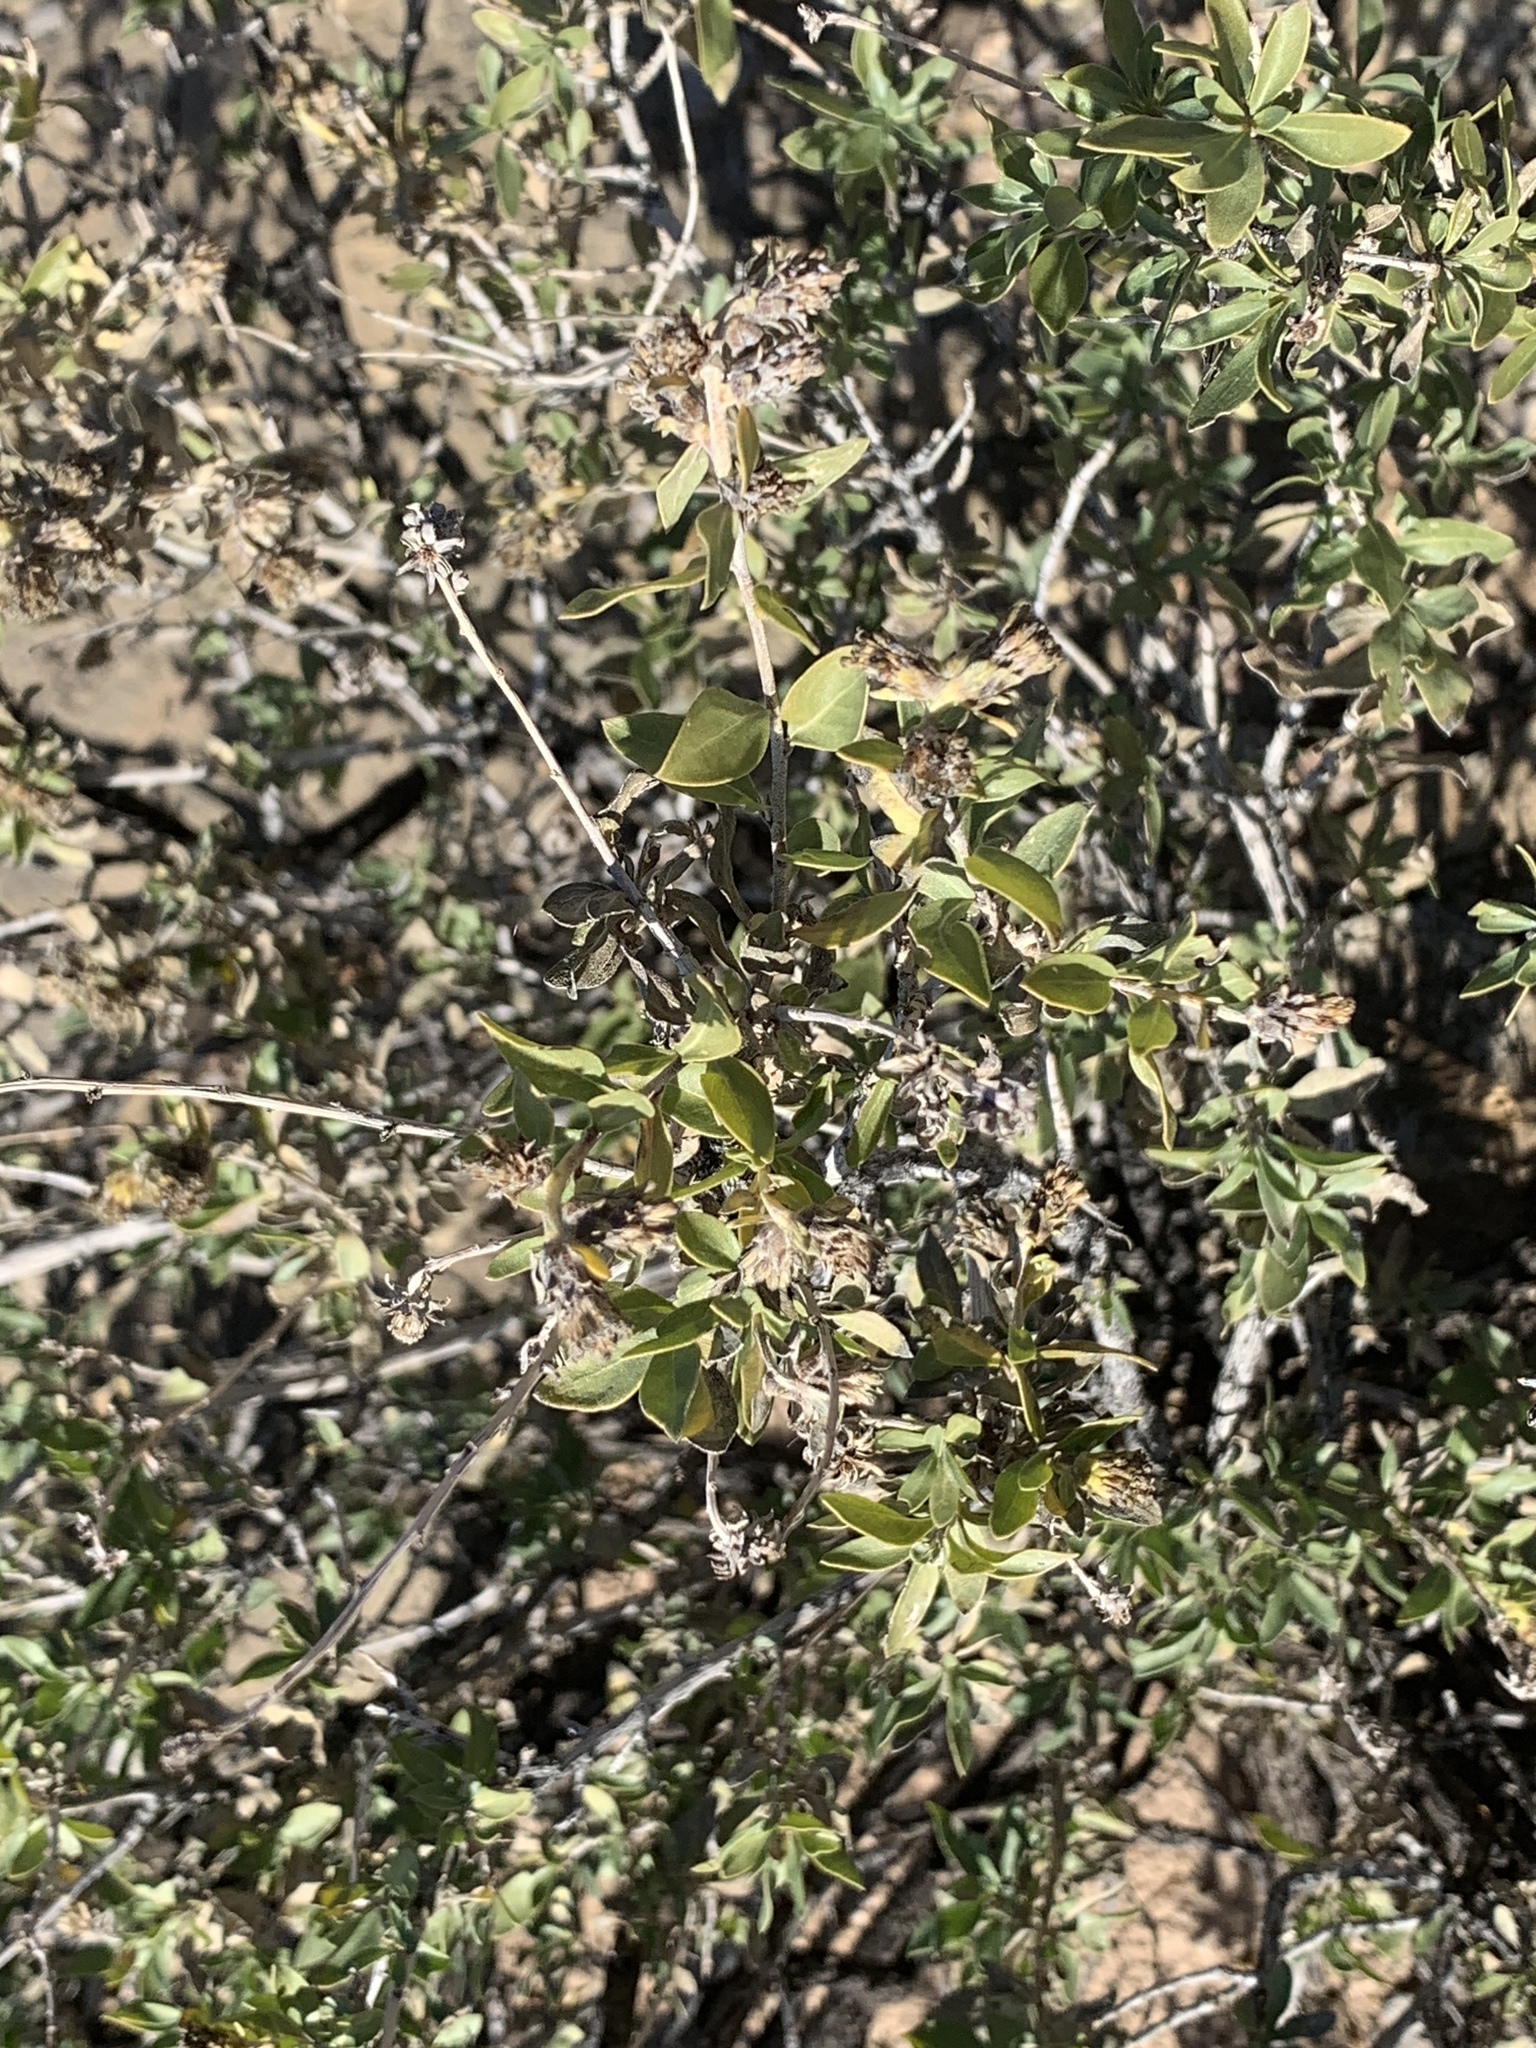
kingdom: Plantae
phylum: Tracheophyta
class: Magnoliopsida
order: Asterales
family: Asteraceae
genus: Flourensia
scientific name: Flourensia cernua
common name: Varnishbush
